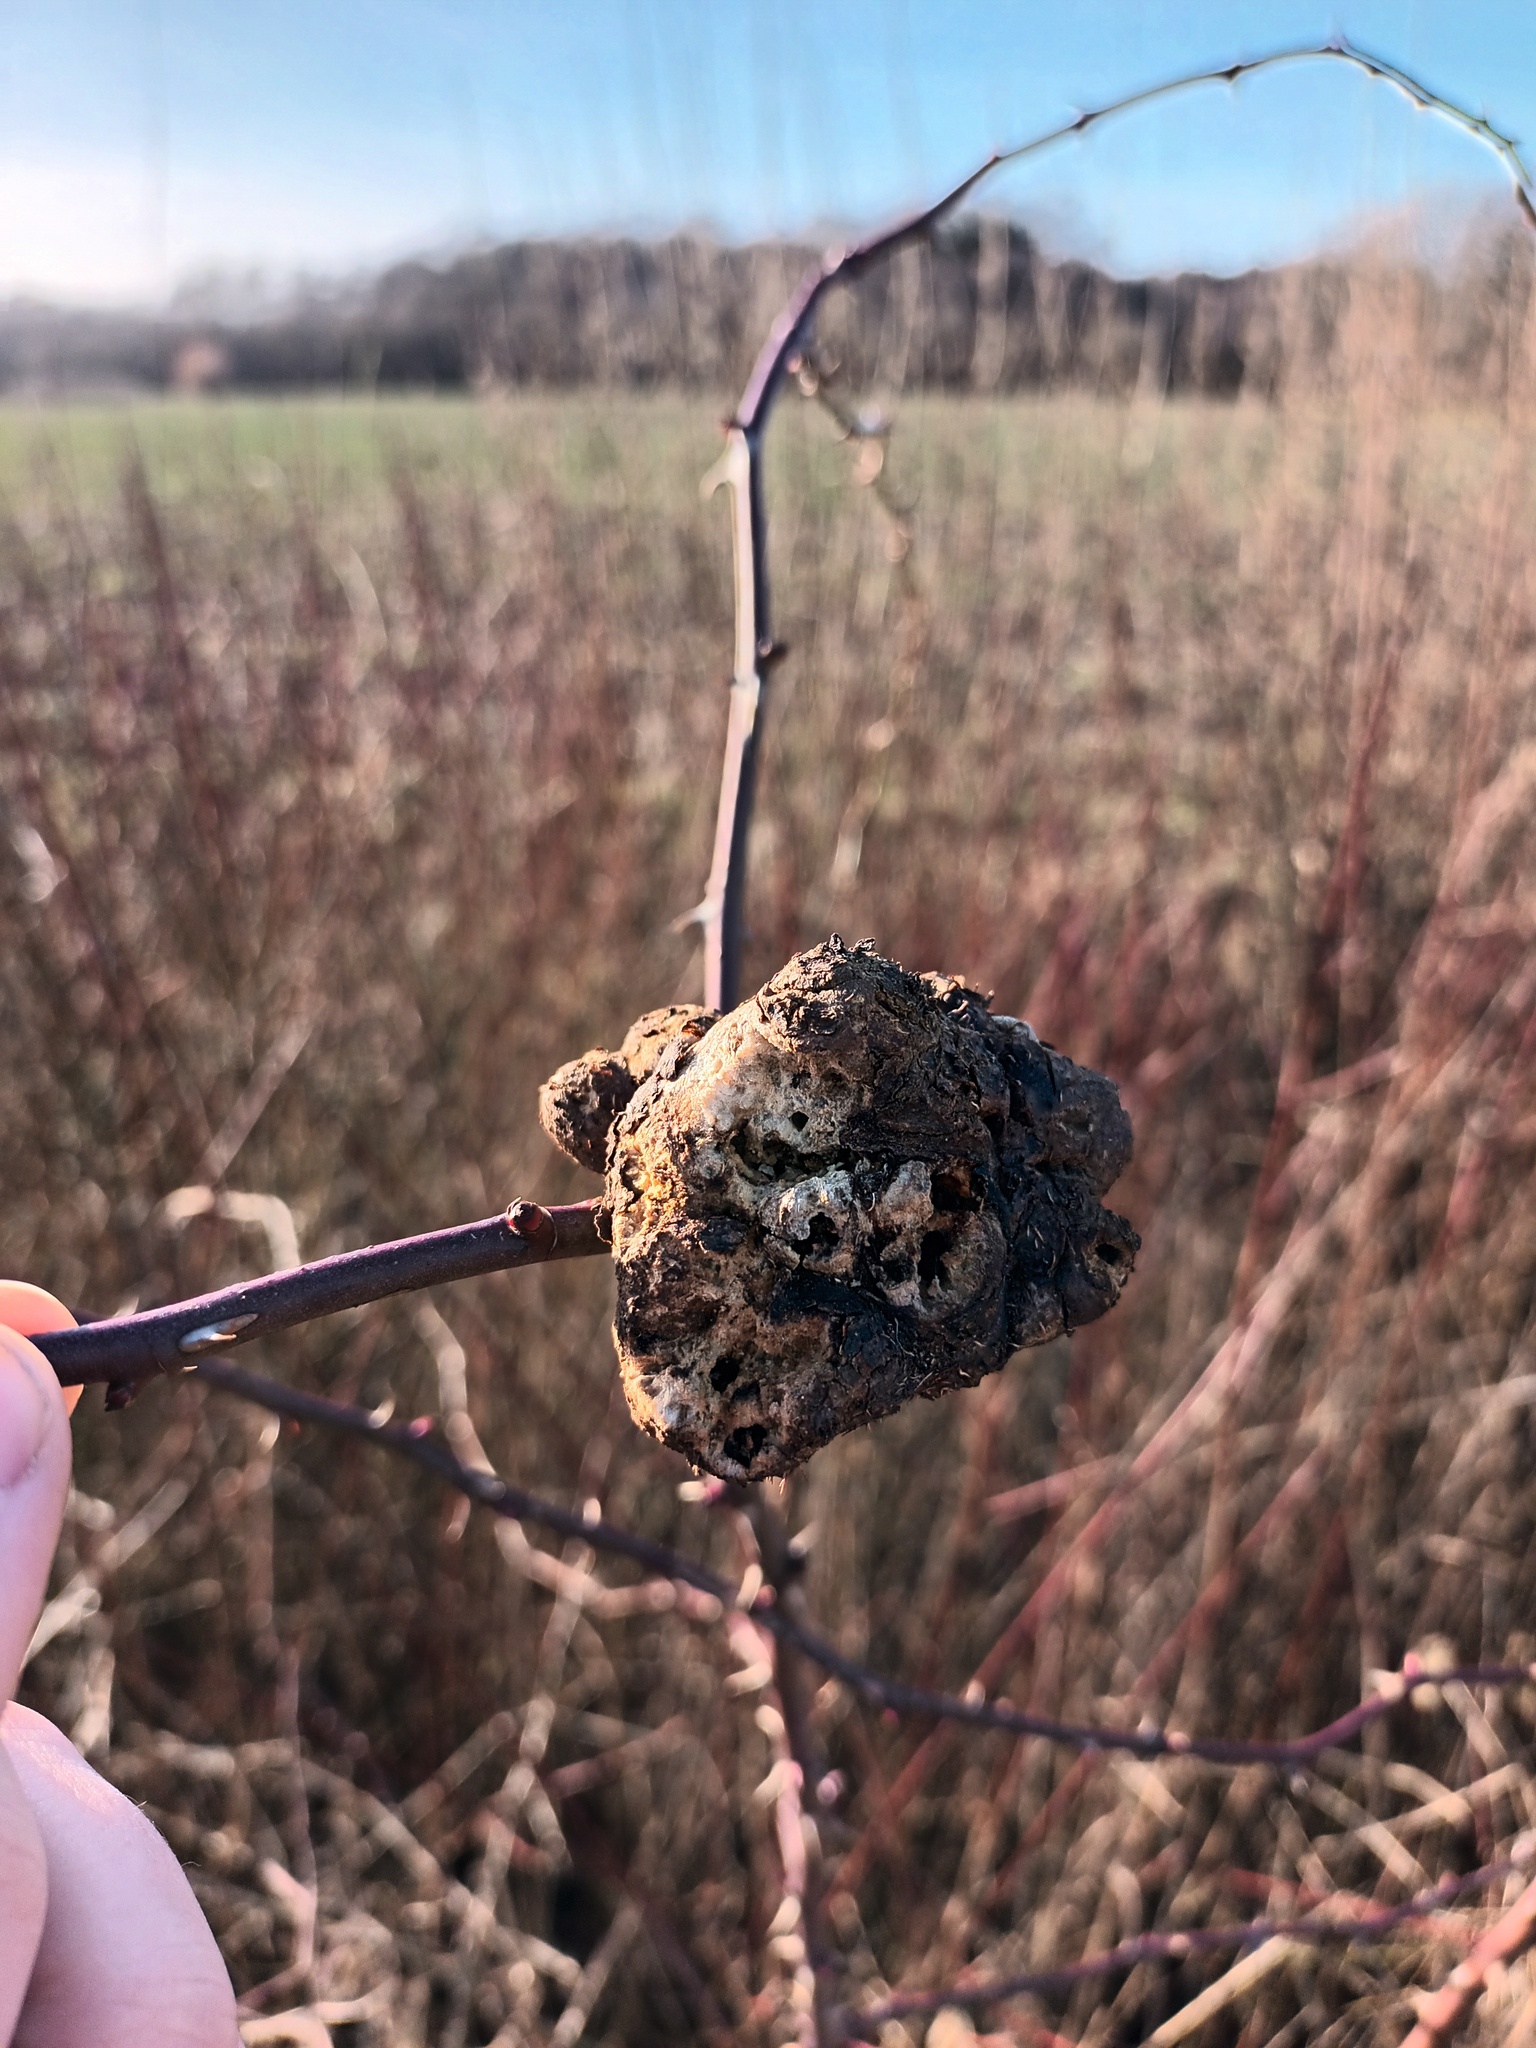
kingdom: Animalia
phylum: Arthropoda
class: Insecta
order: Hymenoptera
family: Cynipidae
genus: Diplolepis
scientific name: Diplolepis rosae
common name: Bedeguar gall
